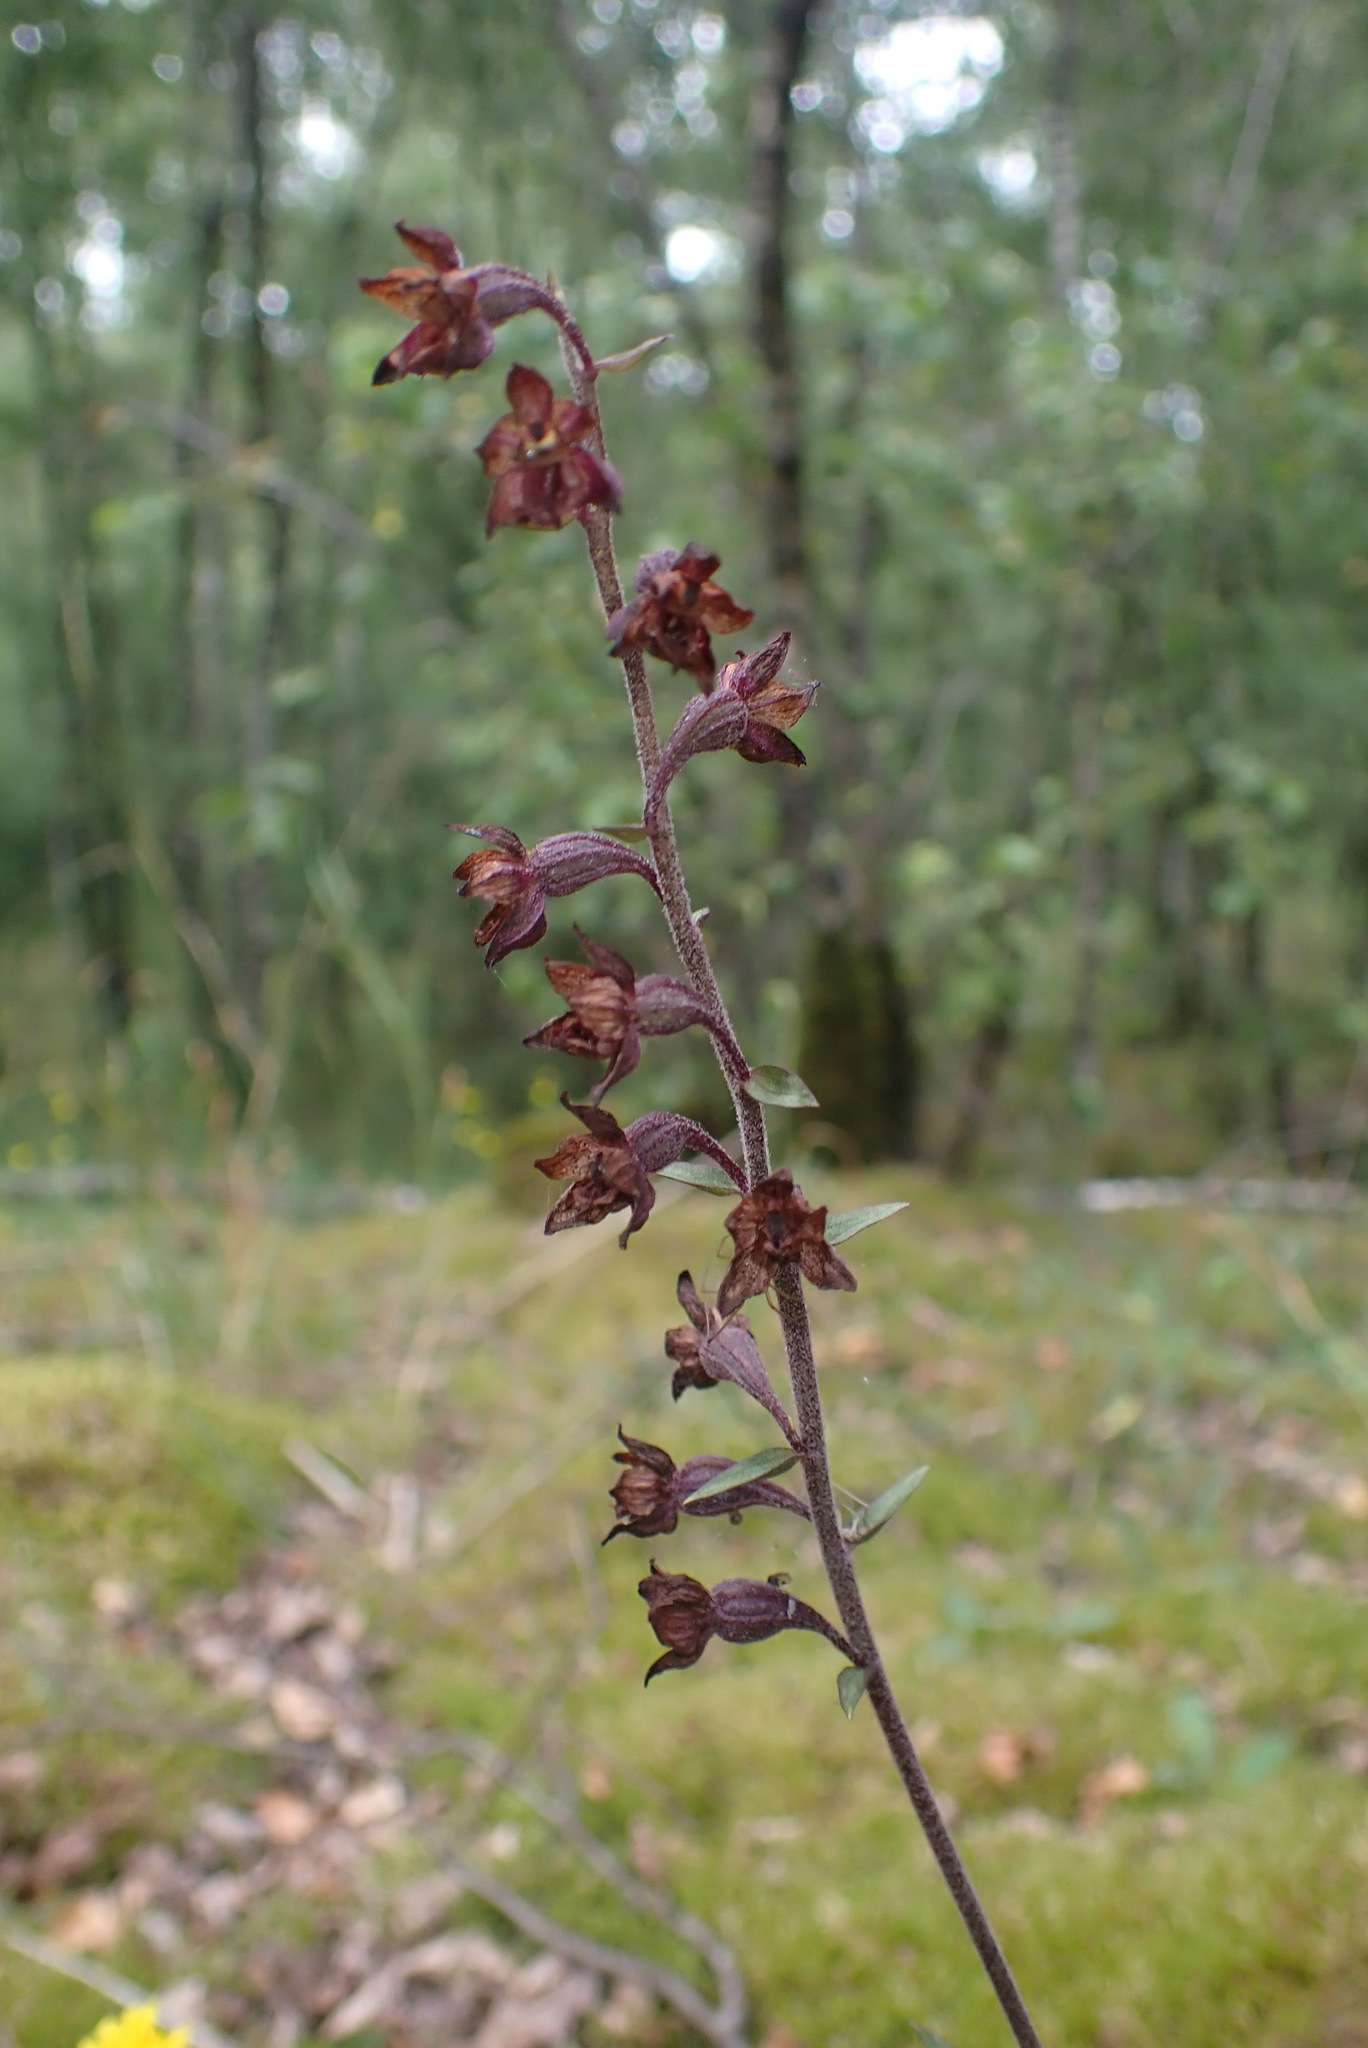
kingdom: Plantae
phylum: Tracheophyta
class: Liliopsida
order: Asparagales
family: Orchidaceae
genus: Epipactis
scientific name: Epipactis atrorubens
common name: Dark-red helleborine
